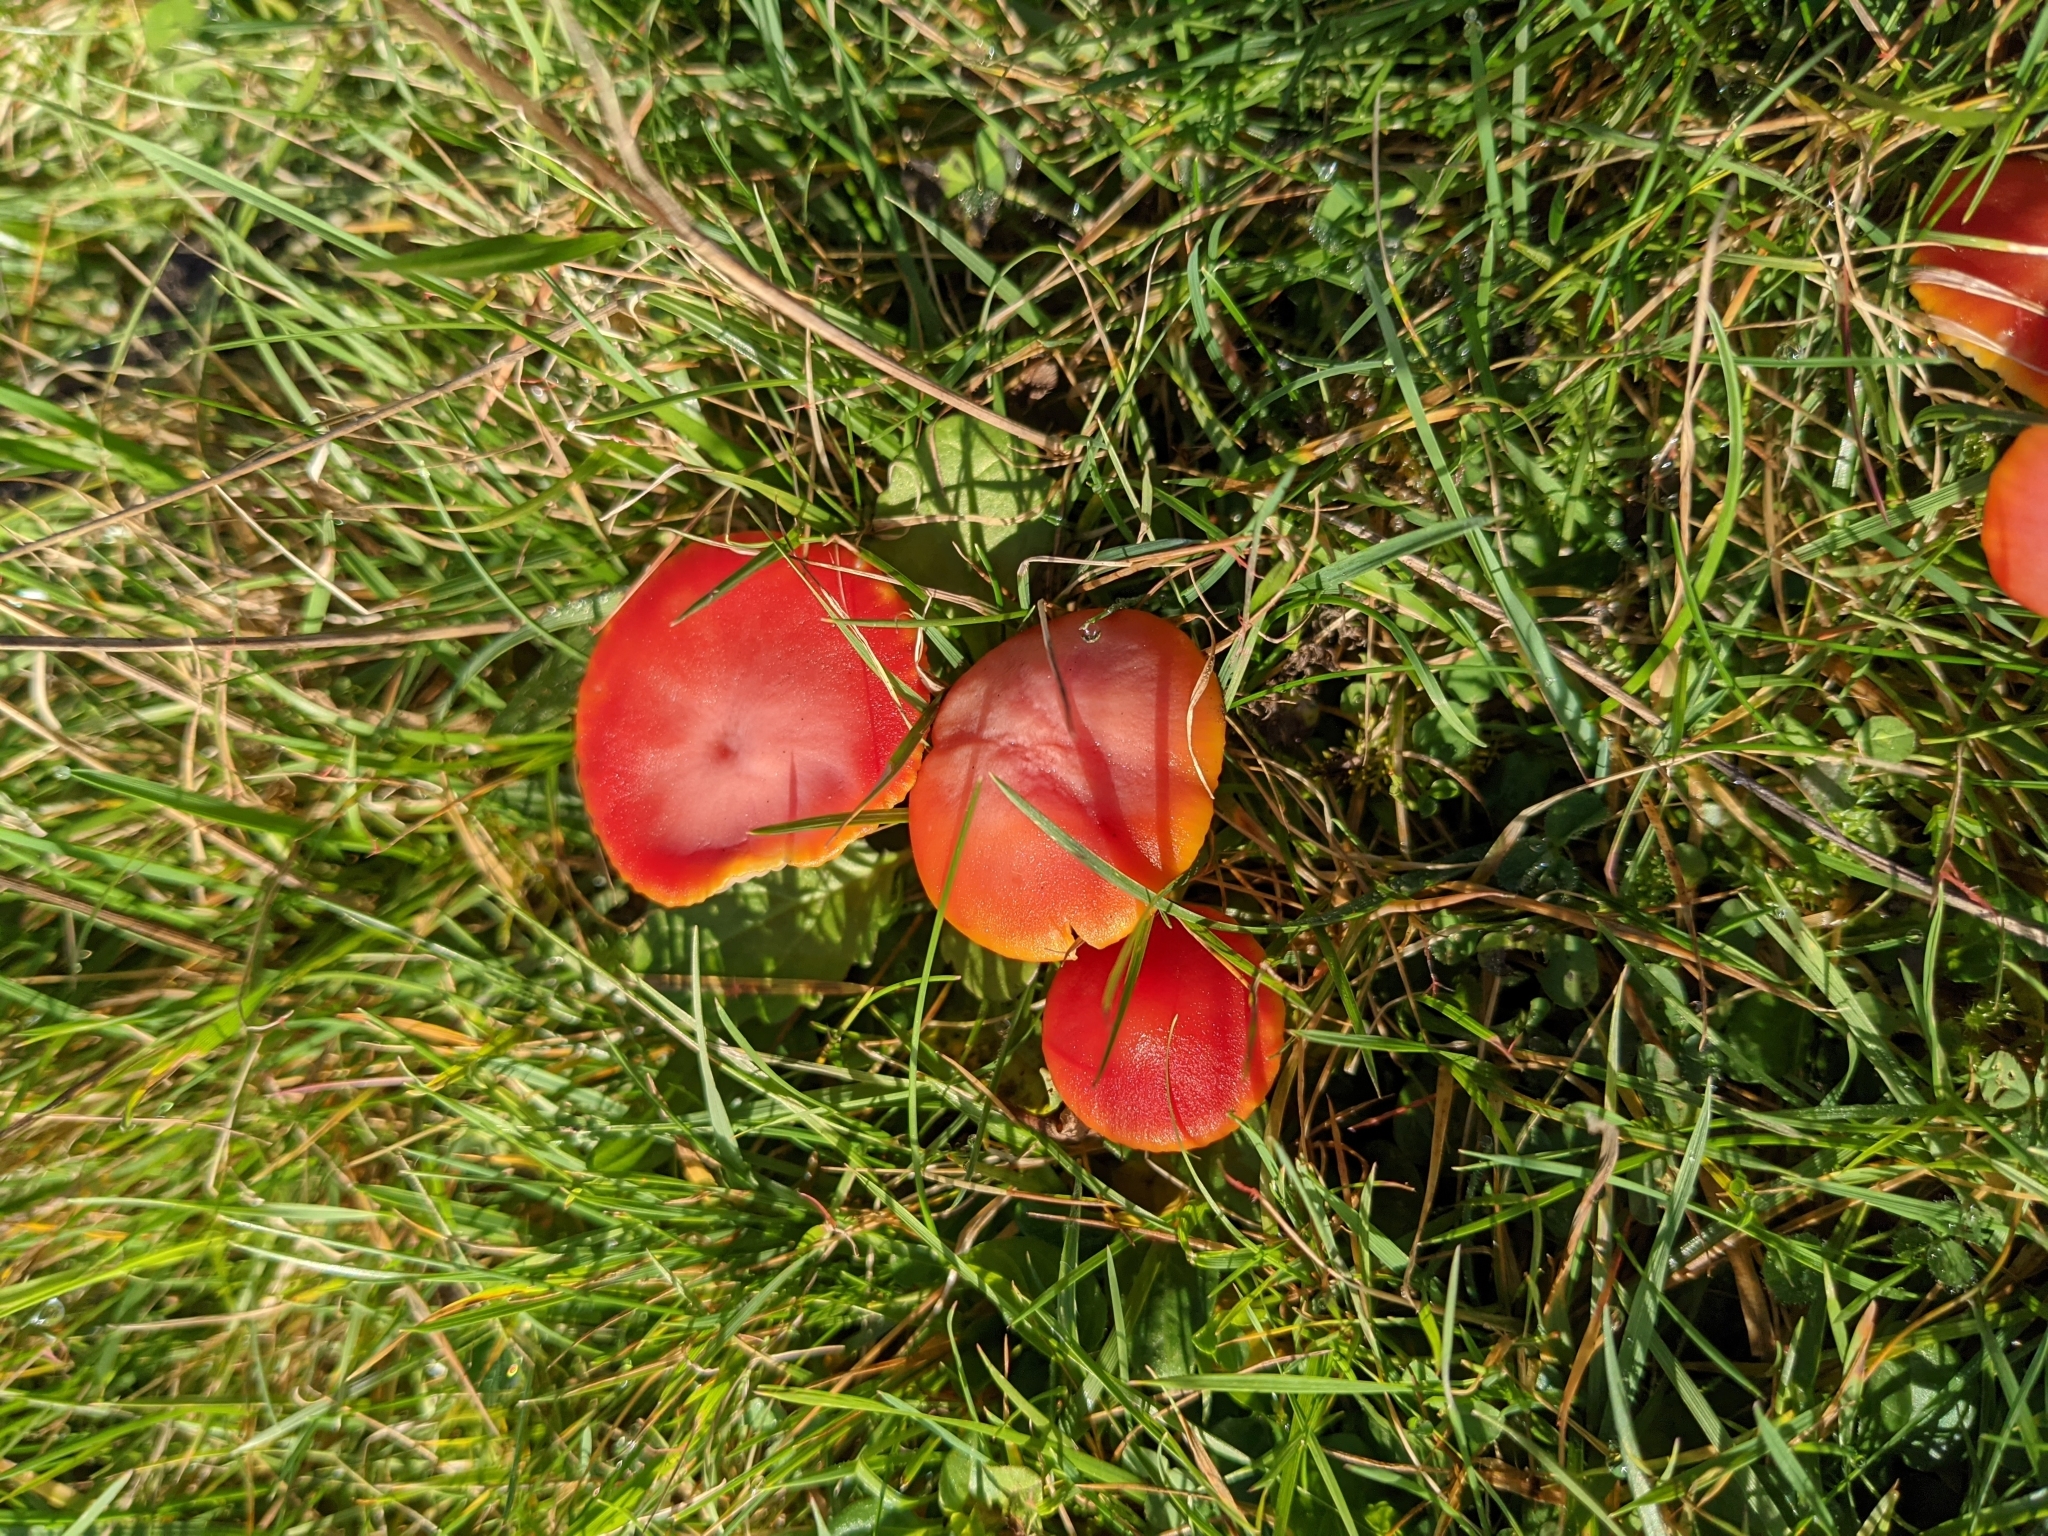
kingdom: Fungi
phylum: Basidiomycota
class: Agaricomycetes
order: Agaricales
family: Hygrophoraceae
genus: Hygrocybe
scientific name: Hygrocybe coccinea
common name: Scarlet hood
